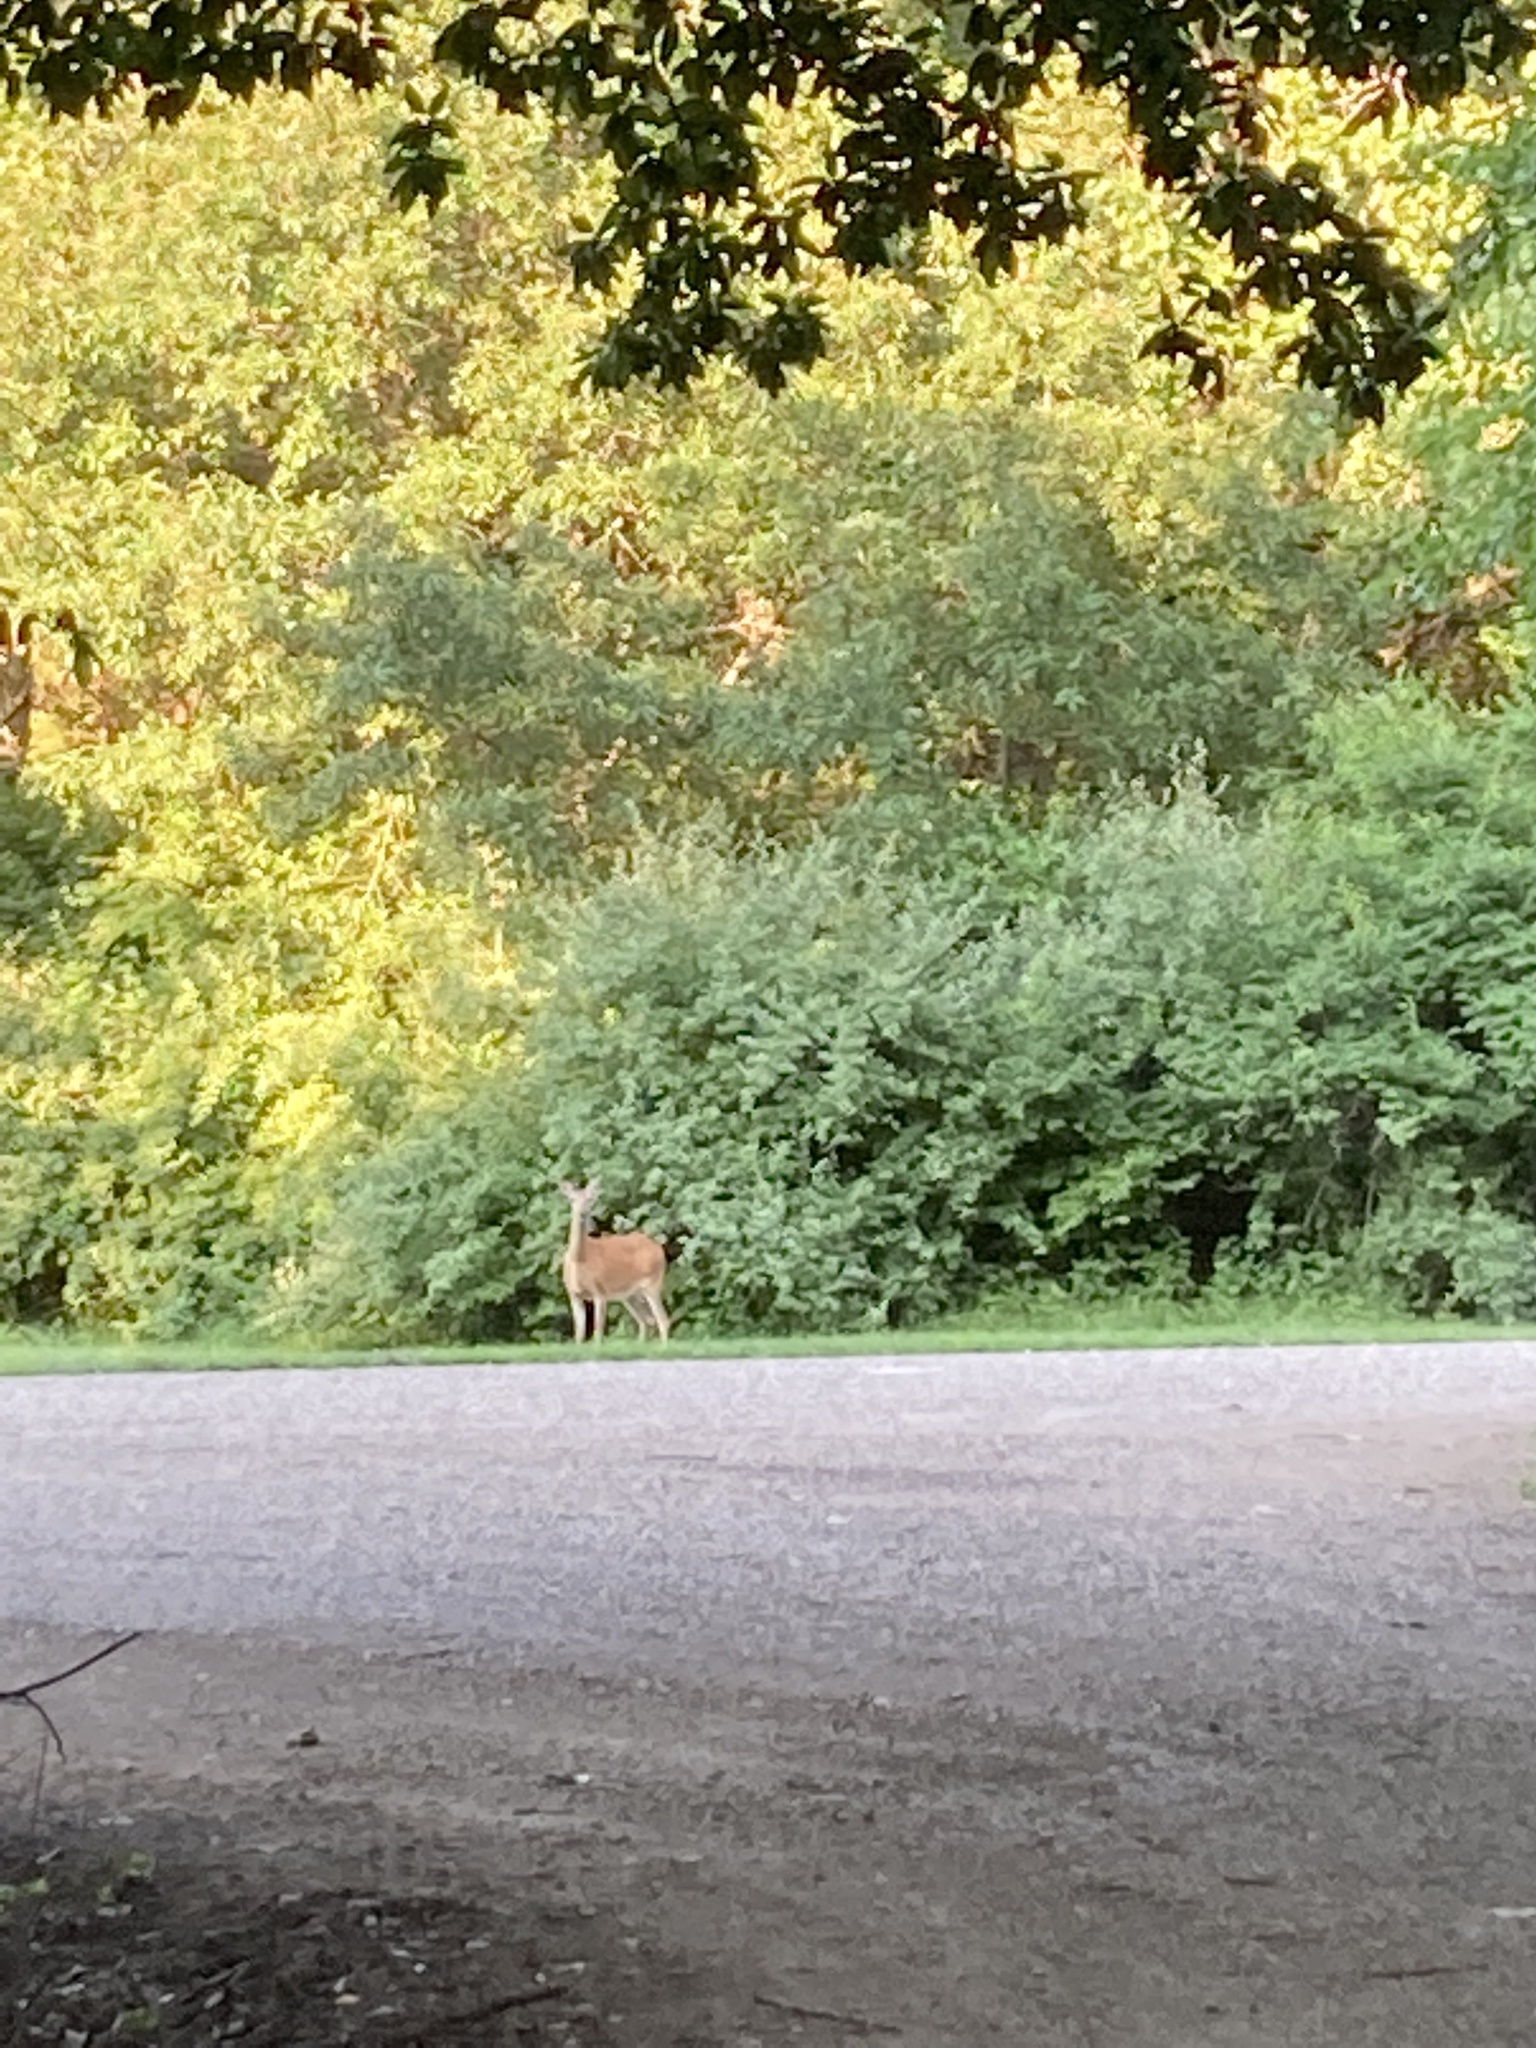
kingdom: Animalia
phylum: Chordata
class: Mammalia
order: Artiodactyla
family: Cervidae
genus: Odocoileus
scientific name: Odocoileus virginianus
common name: White-tailed deer
